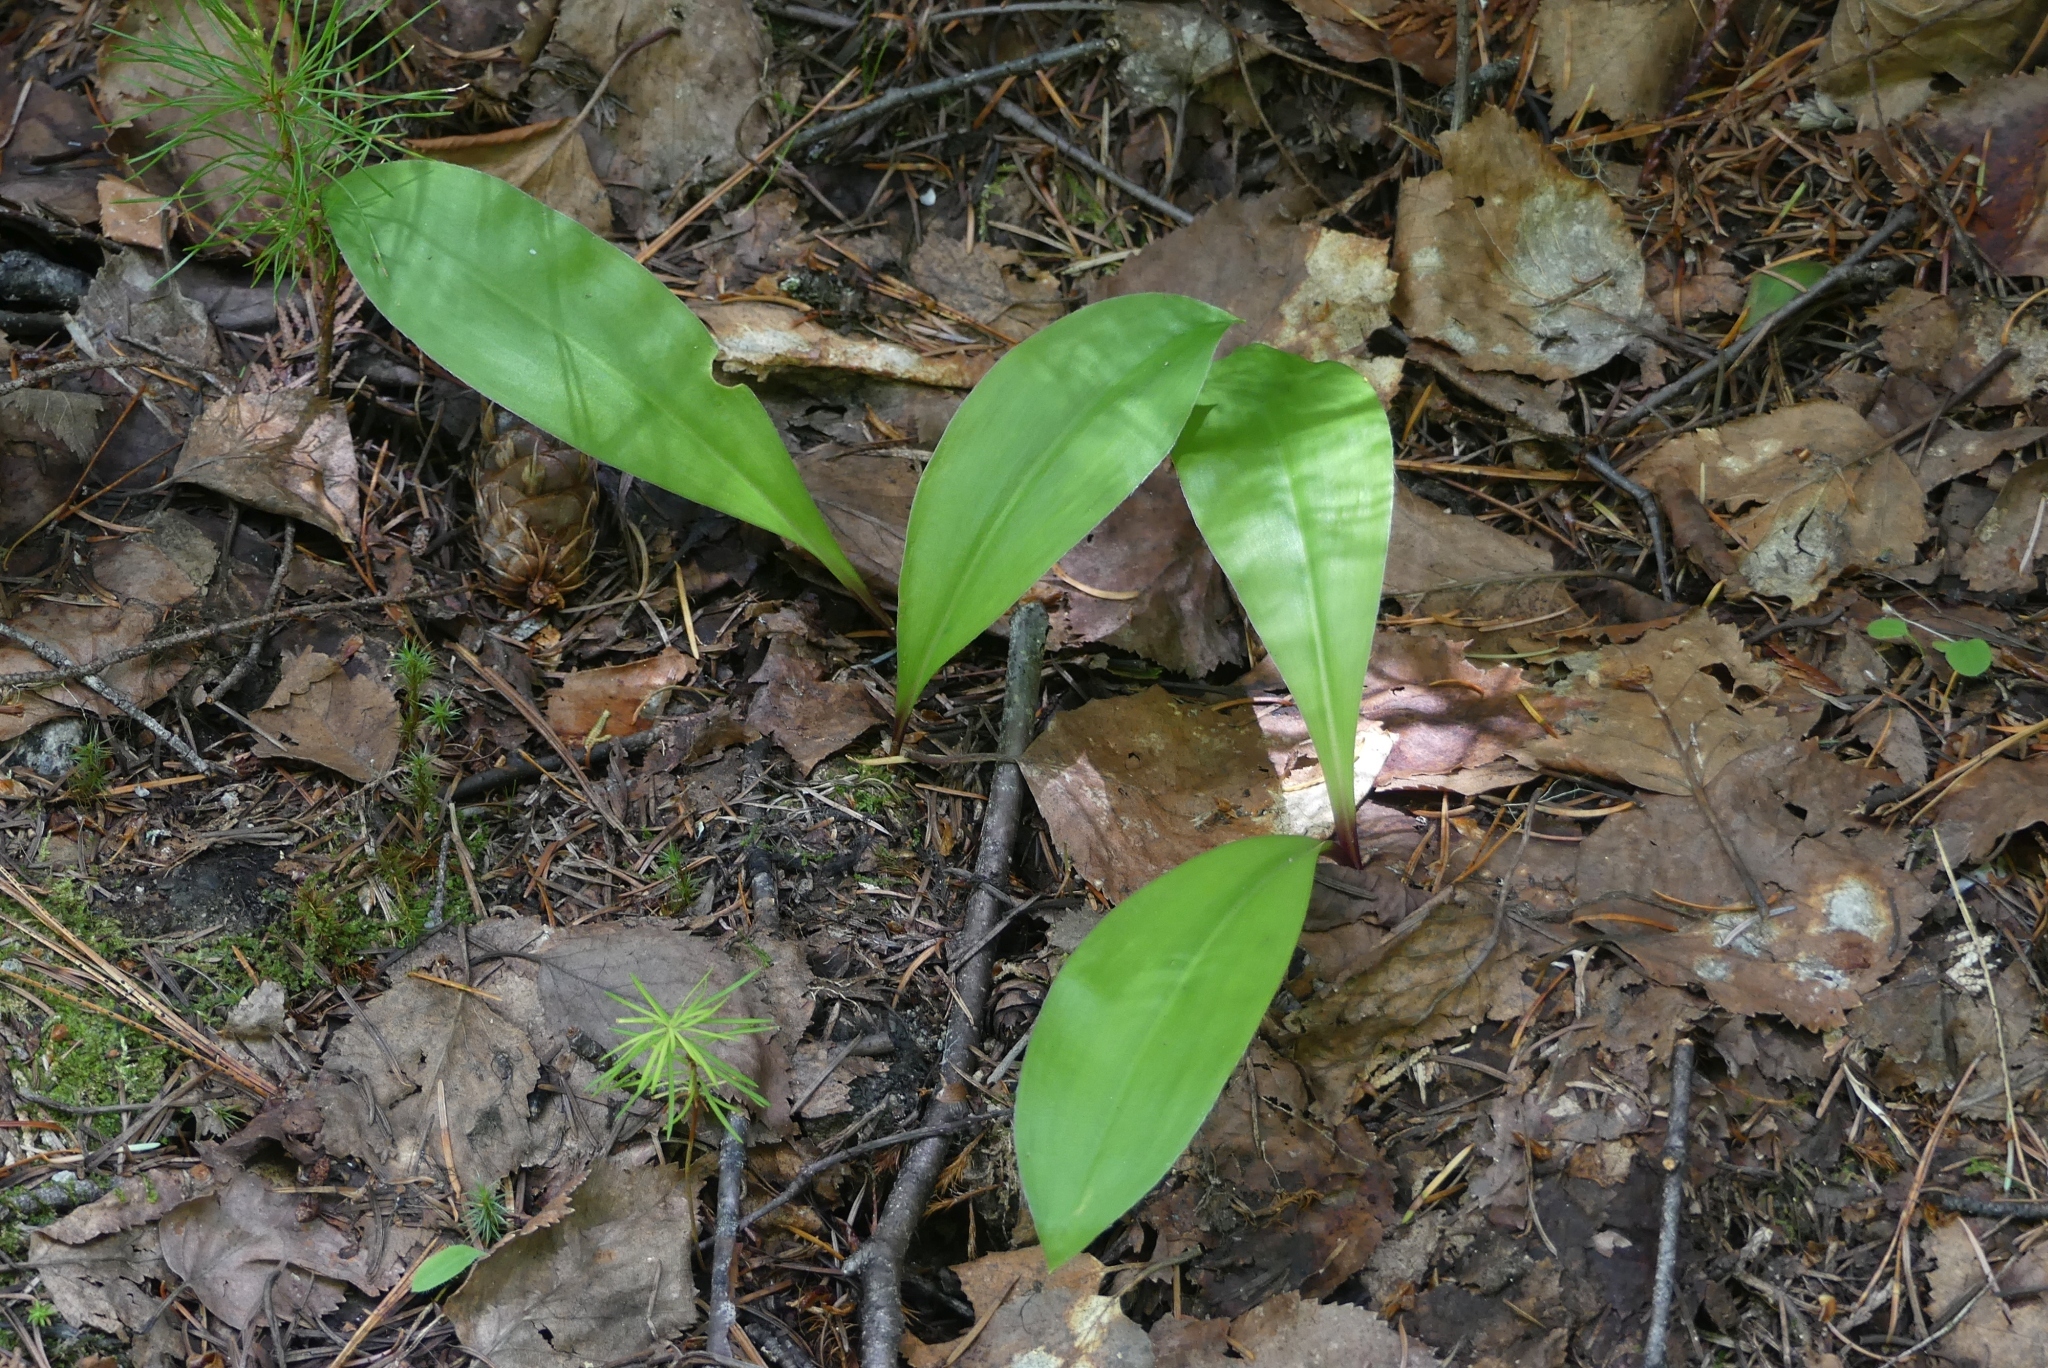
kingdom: Plantae
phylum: Tracheophyta
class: Liliopsida
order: Liliales
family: Liliaceae
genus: Clintonia
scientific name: Clintonia uniflora
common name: Queen's cup
